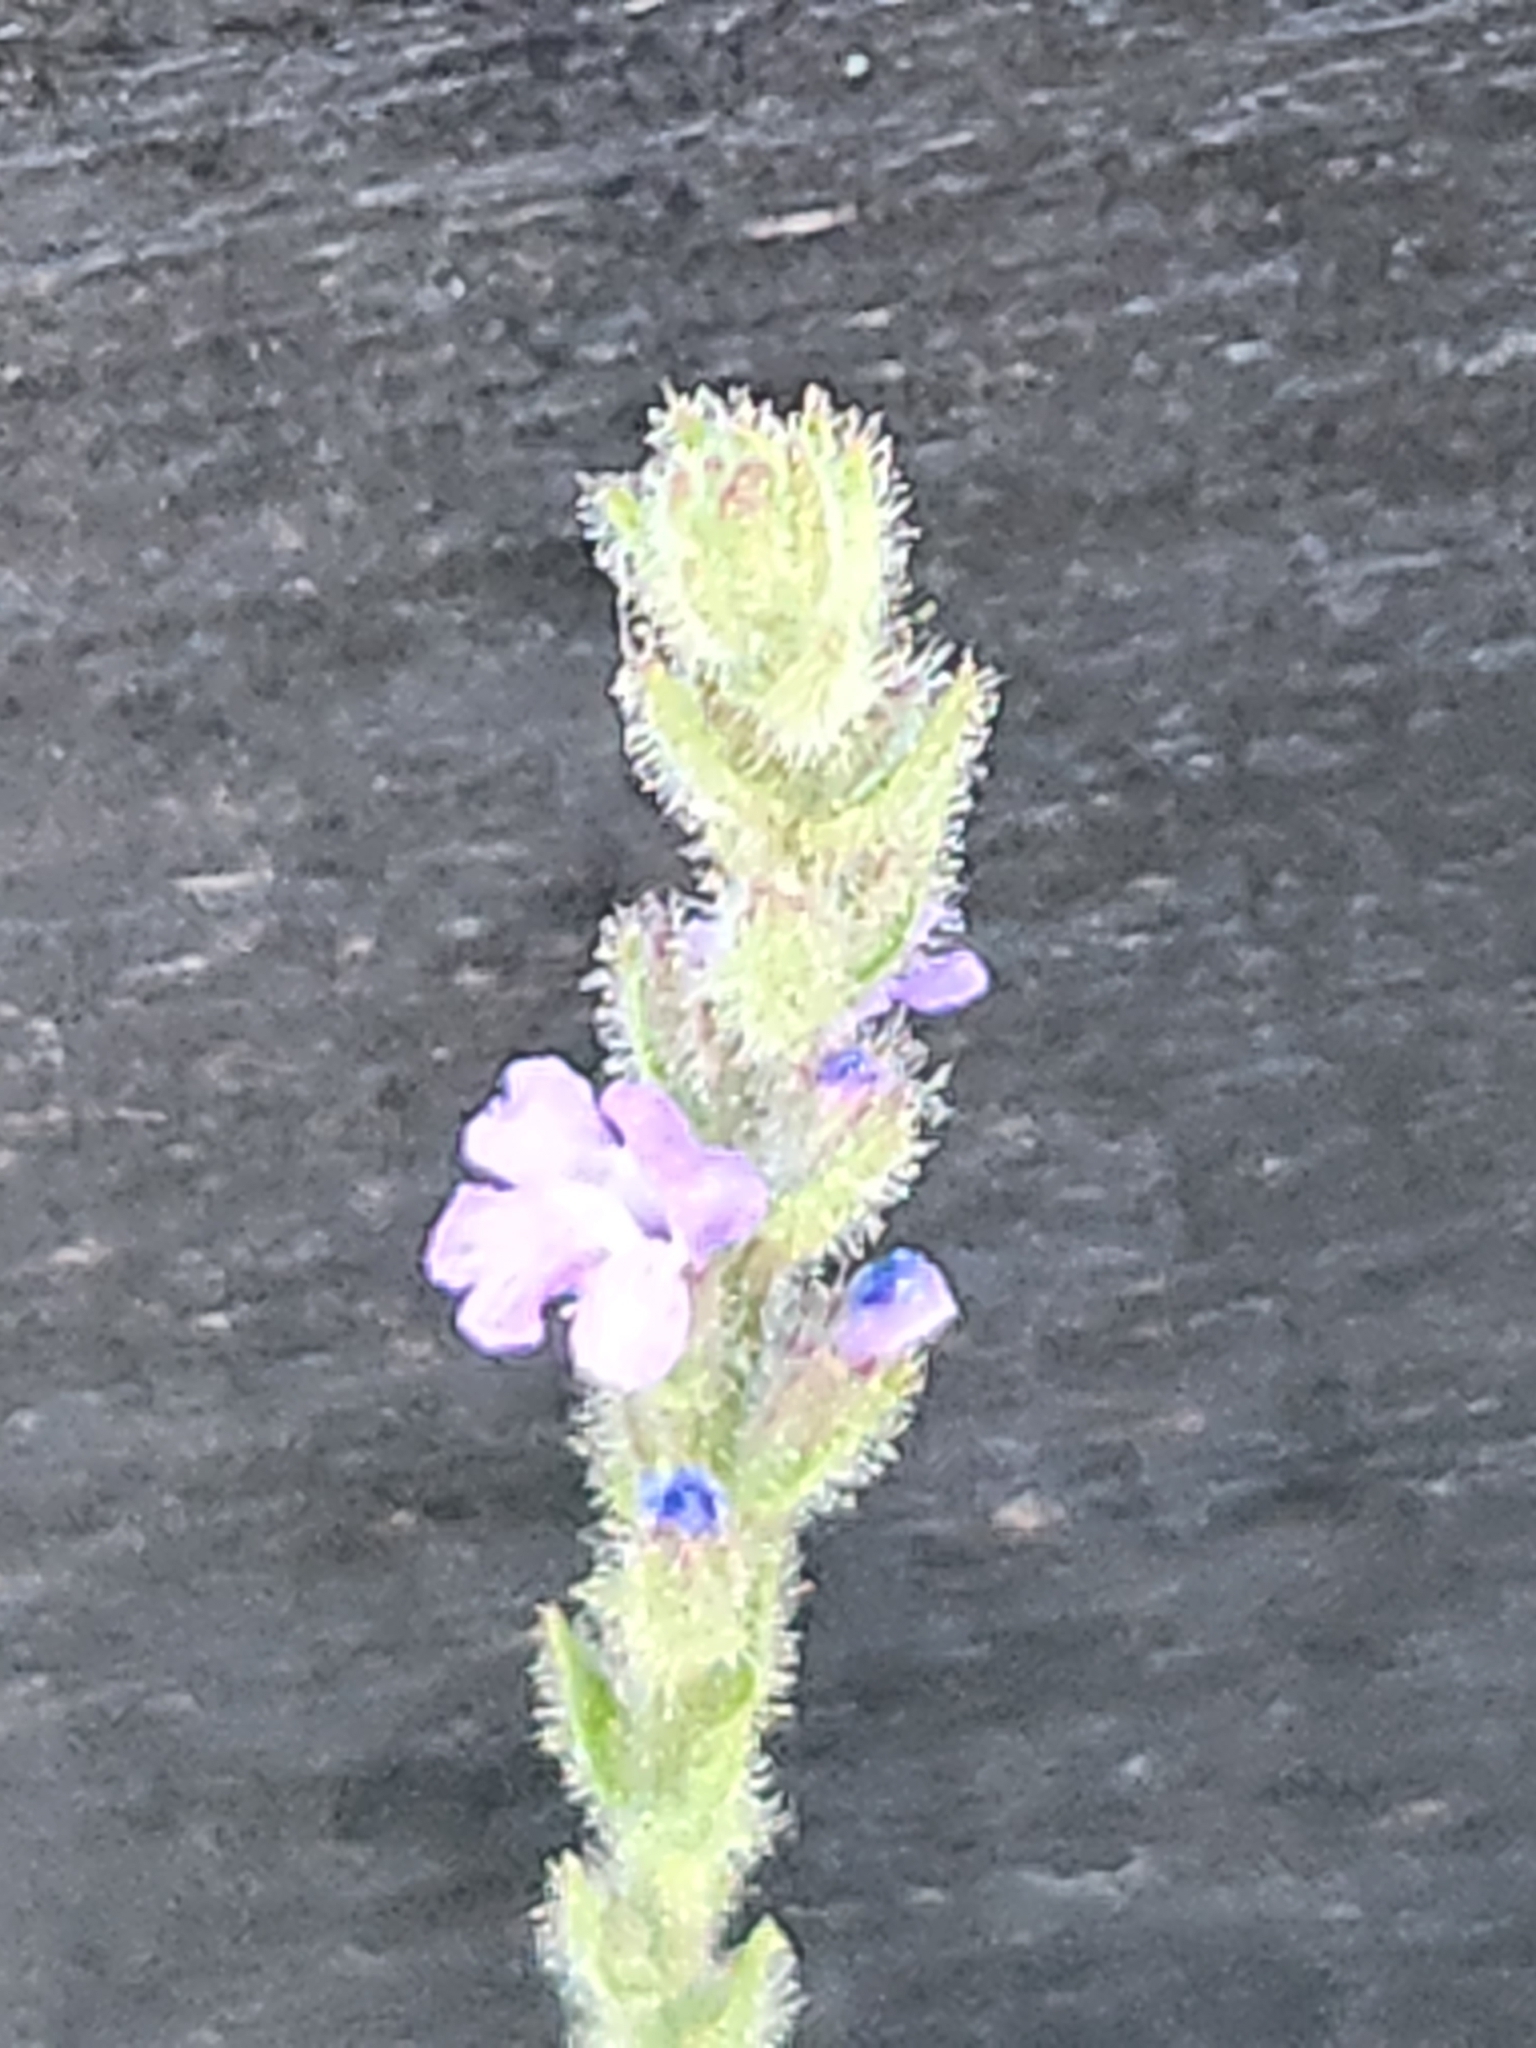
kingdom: Plantae
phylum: Tracheophyta
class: Magnoliopsida
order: Lamiales
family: Verbenaceae
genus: Verbena
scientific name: Verbena canescens
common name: Gray vervain
